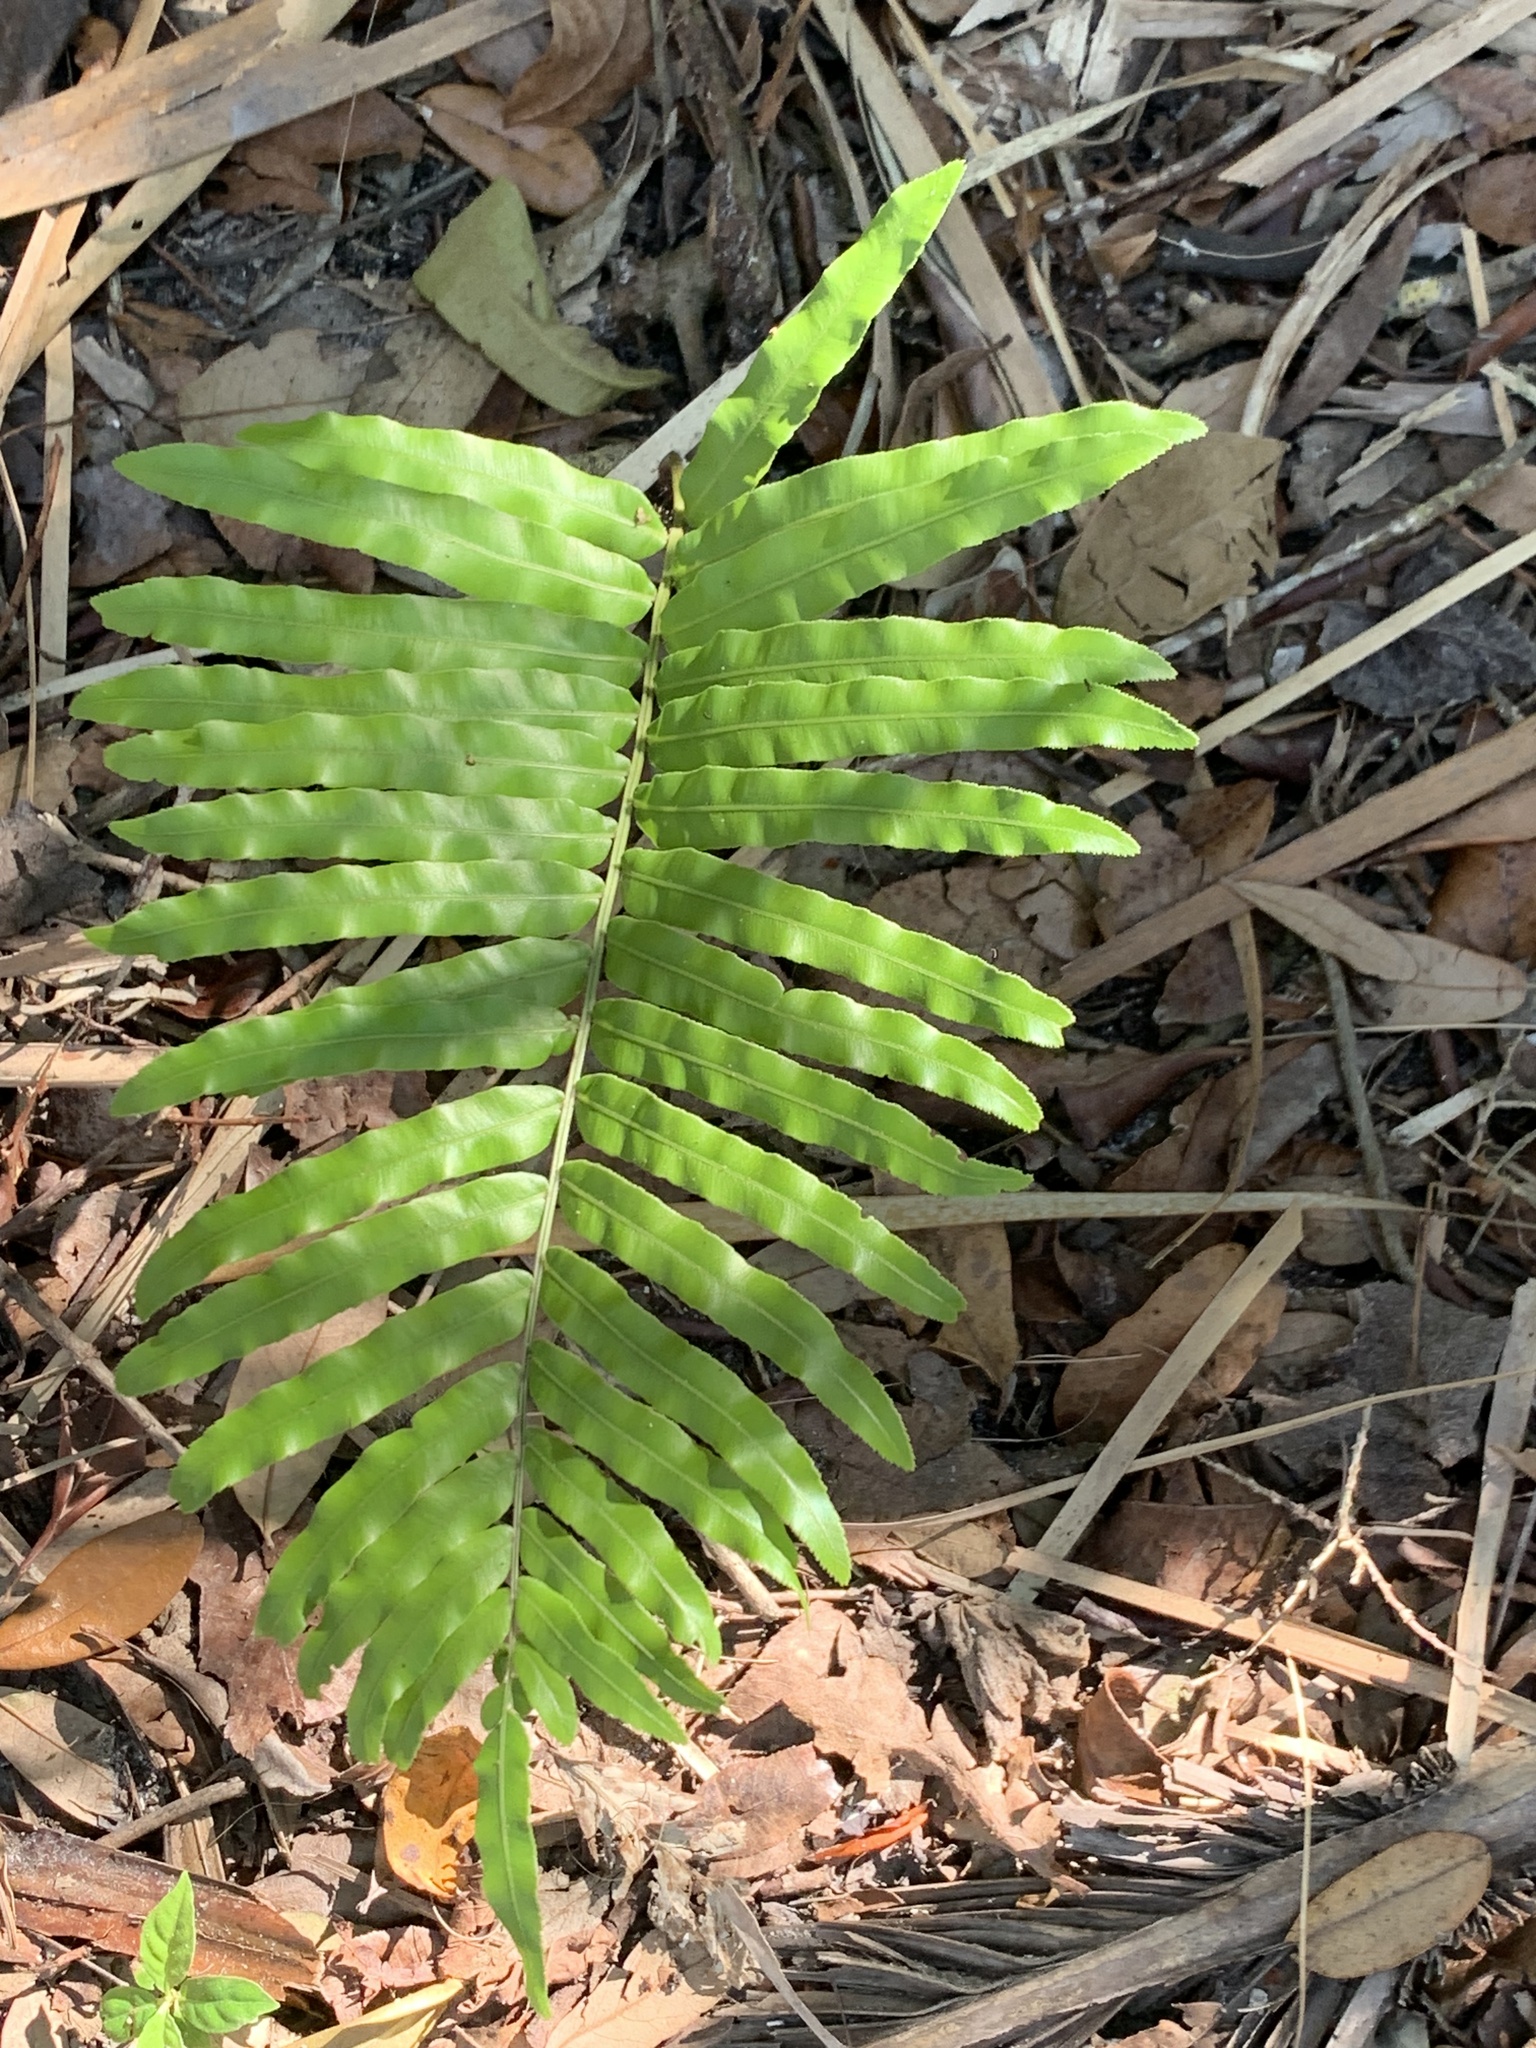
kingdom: Plantae
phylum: Tracheophyta
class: Polypodiopsida
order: Polypodiales
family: Blechnaceae
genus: Telmatoblechnum
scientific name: Telmatoblechnum serrulatum
